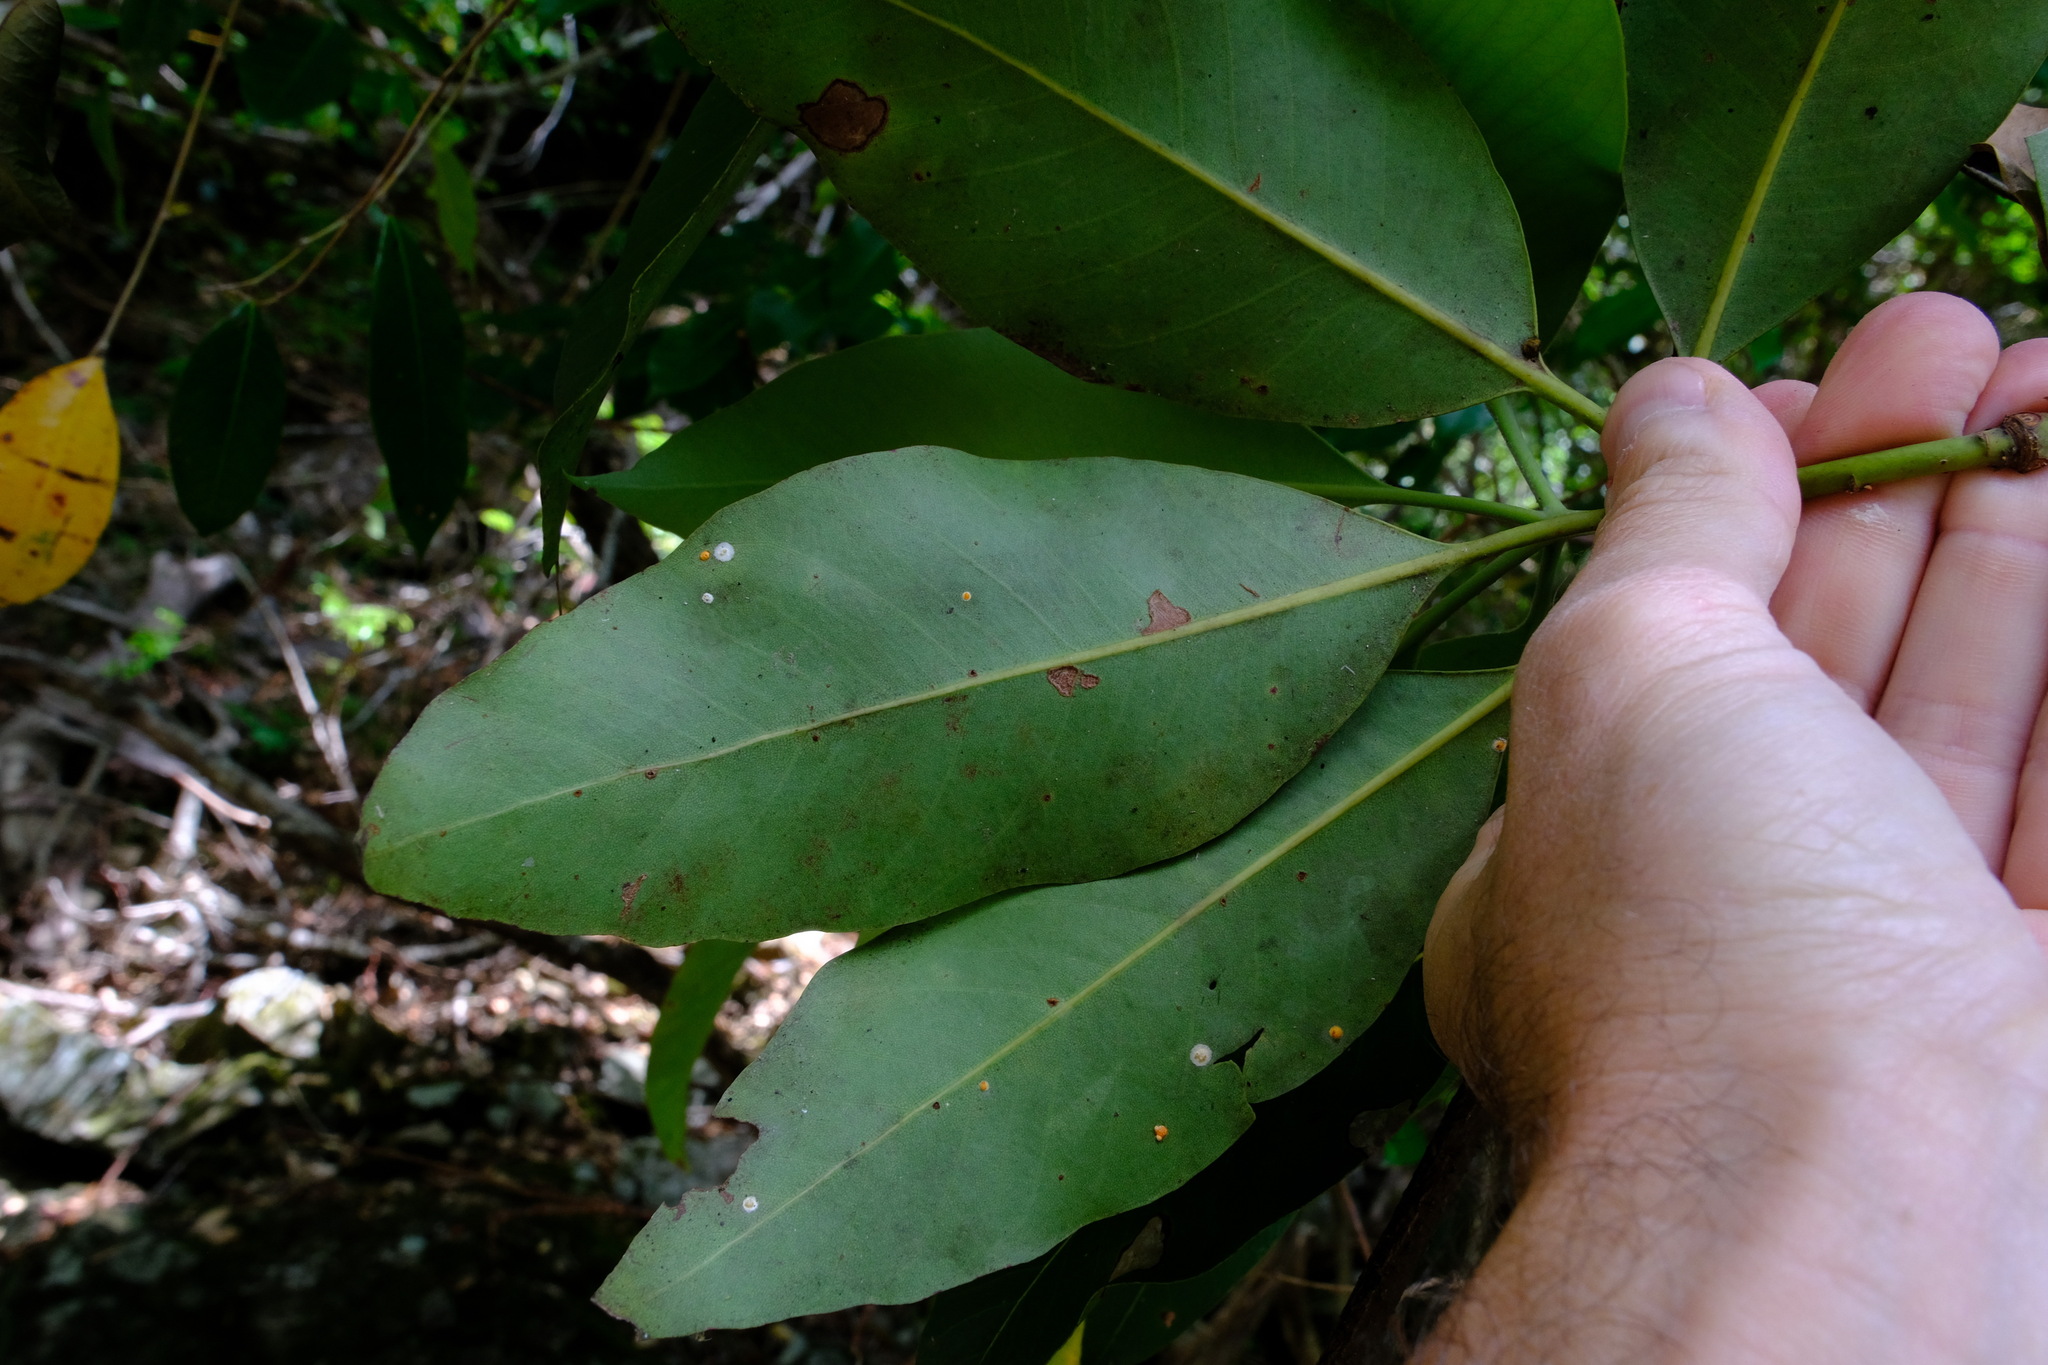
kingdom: Plantae
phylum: Tracheophyta
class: Magnoliopsida
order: Myrtales
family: Myrtaceae
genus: Lophostemon
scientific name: Lophostemon confertus
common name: Brisbane box
